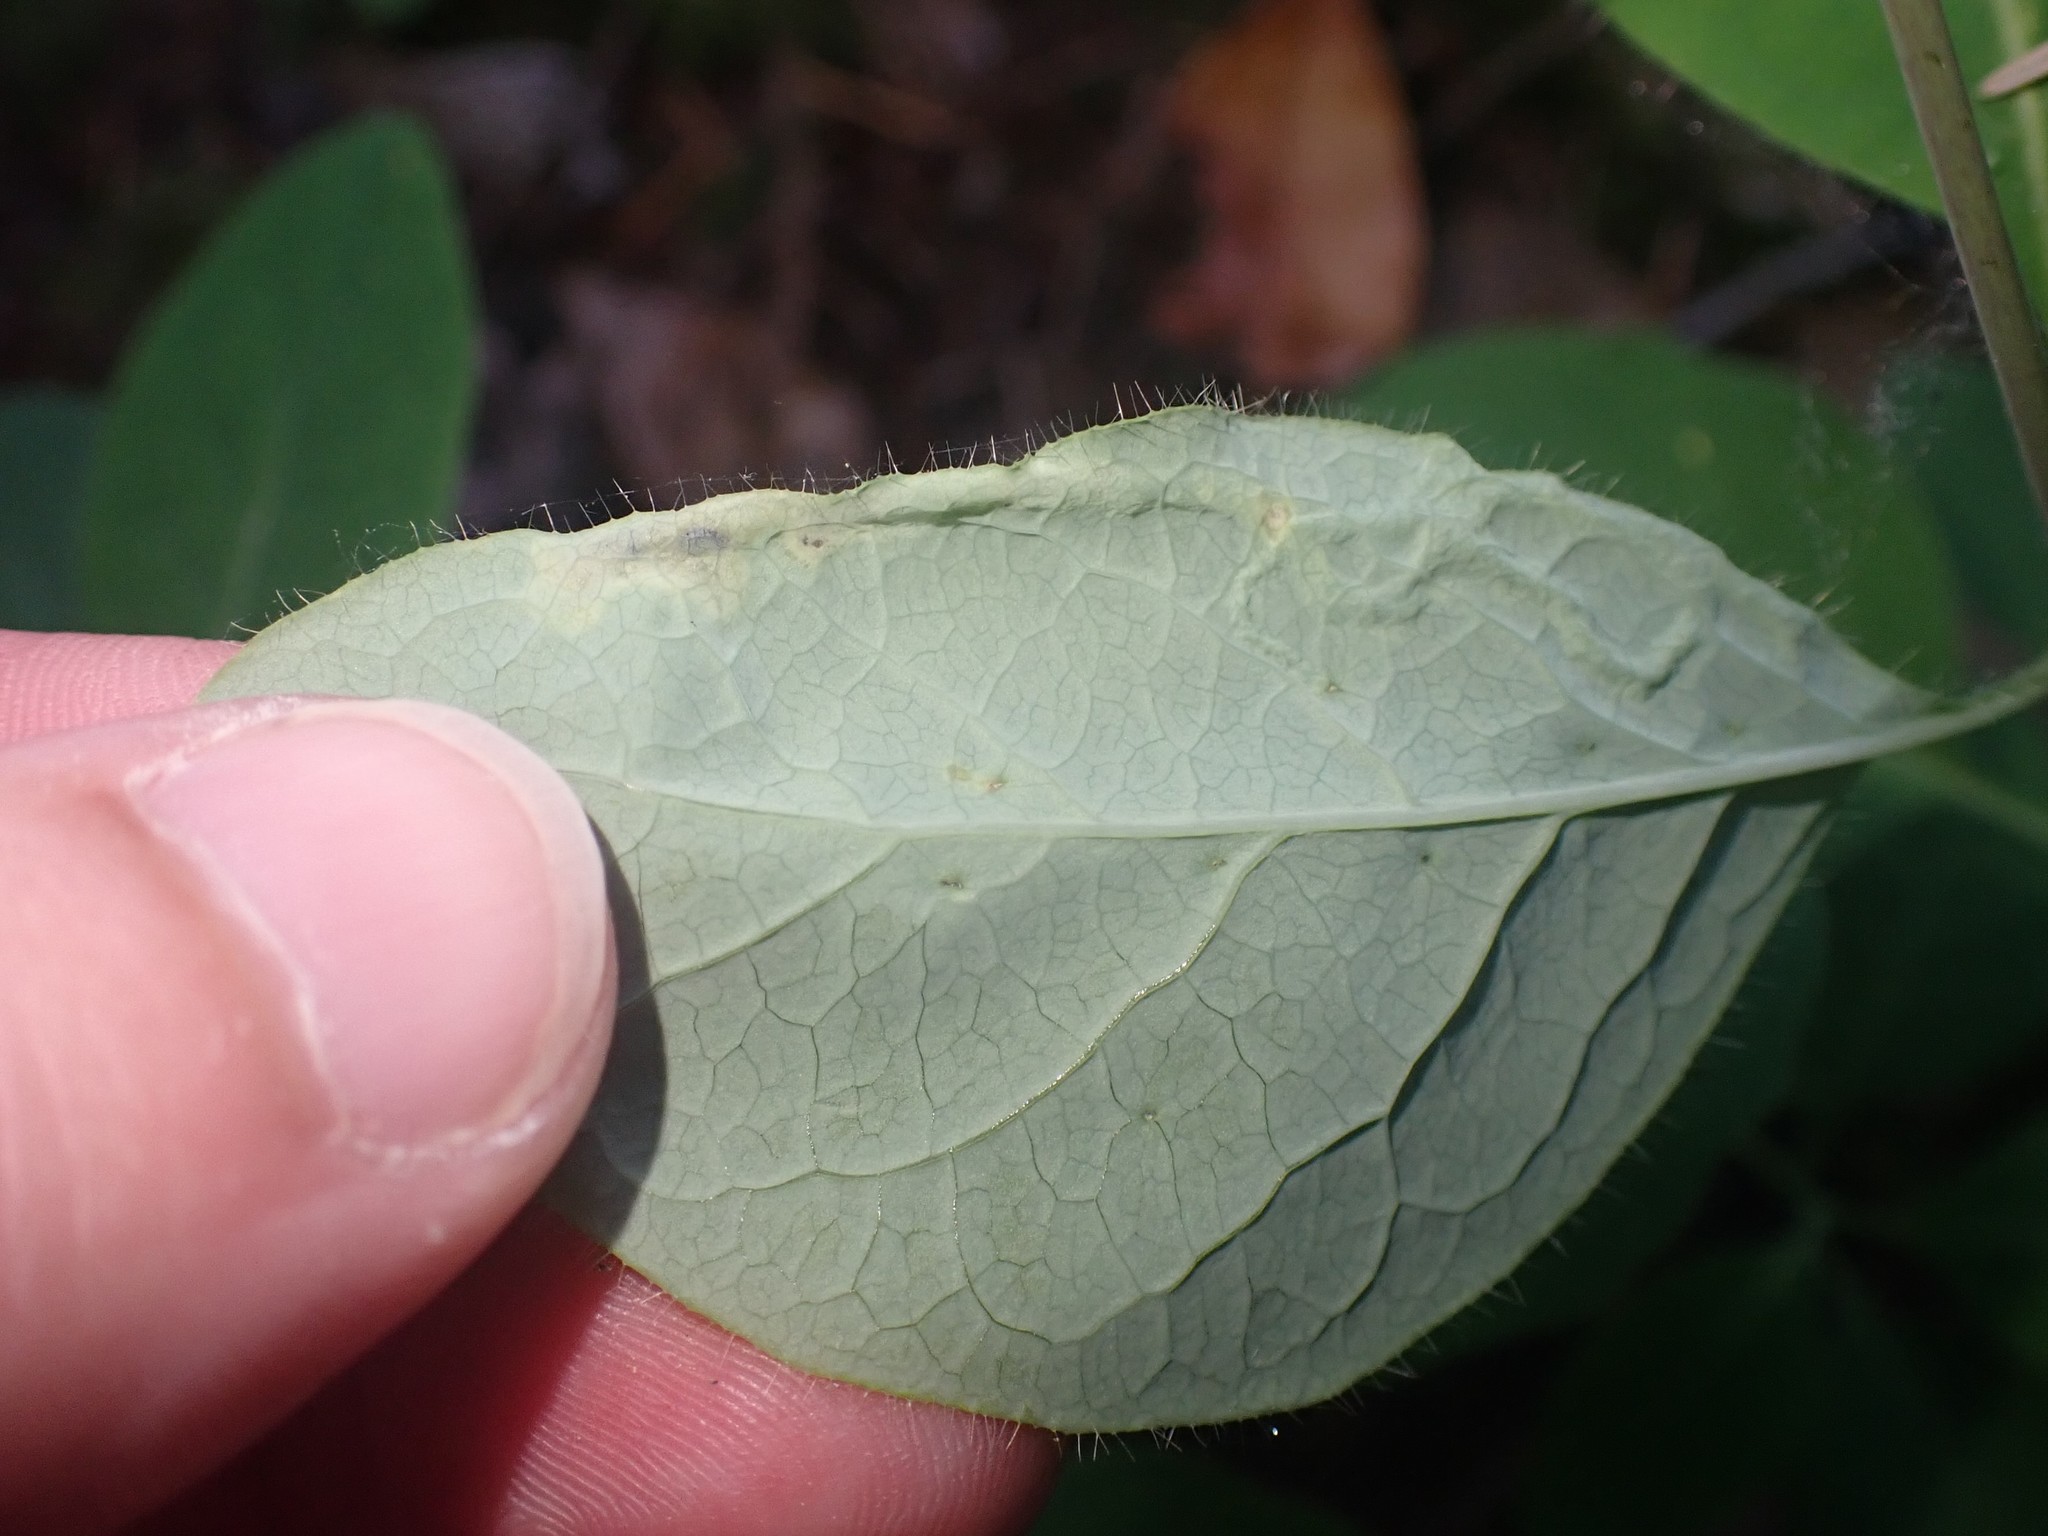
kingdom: Animalia
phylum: Arthropoda
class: Insecta
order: Diptera
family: Agromyzidae
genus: Aulagromyza
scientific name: Aulagromyza cornigera
